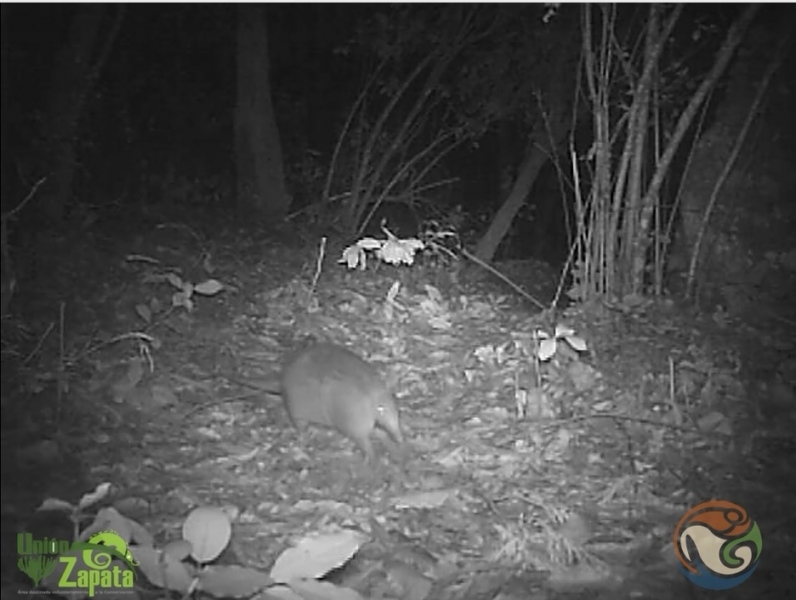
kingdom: Animalia
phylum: Chordata
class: Mammalia
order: Cingulata
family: Dasypodidae
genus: Dasypus
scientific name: Dasypus novemcinctus
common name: Nine-banded armadillo
